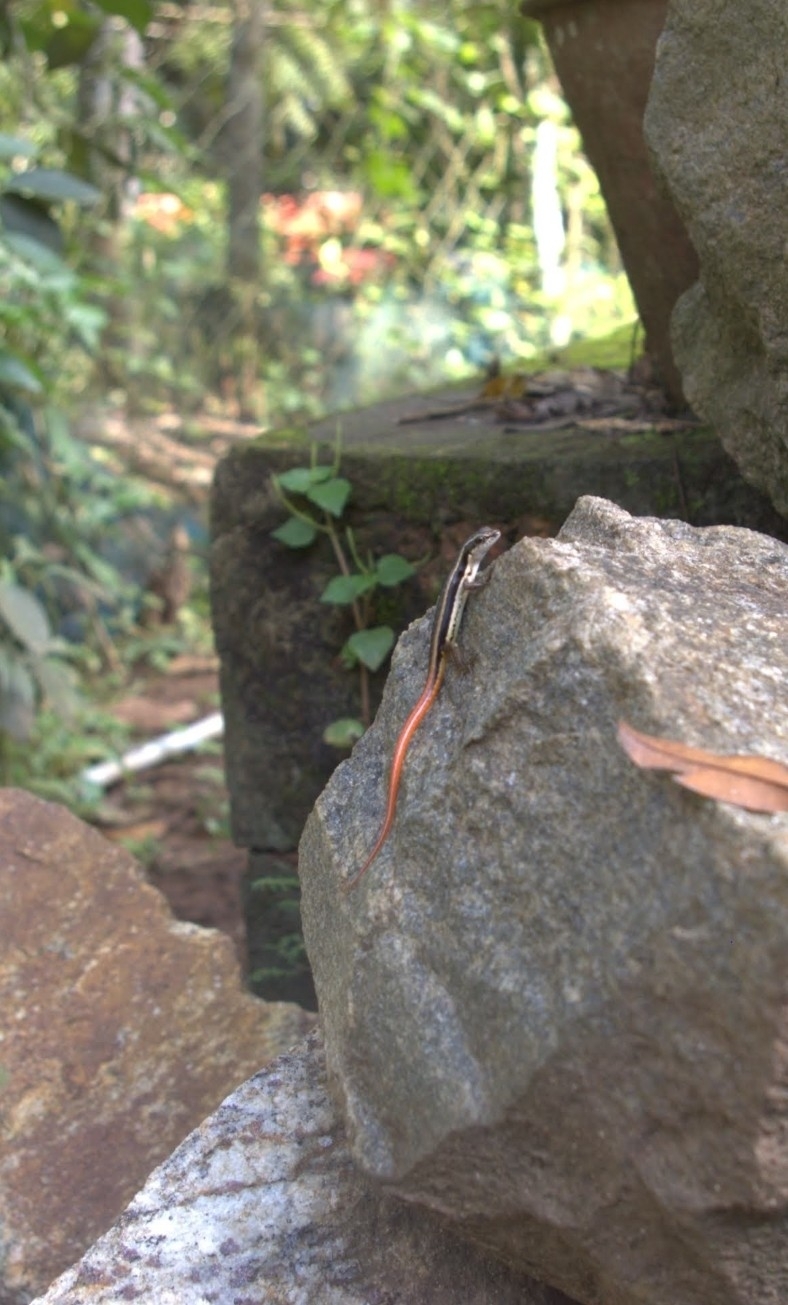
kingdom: Animalia
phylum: Chordata
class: Squamata
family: Scincidae
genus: Sphenomorphus
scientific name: Sphenomorphus dussumieri
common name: Dussumier's forest skink
